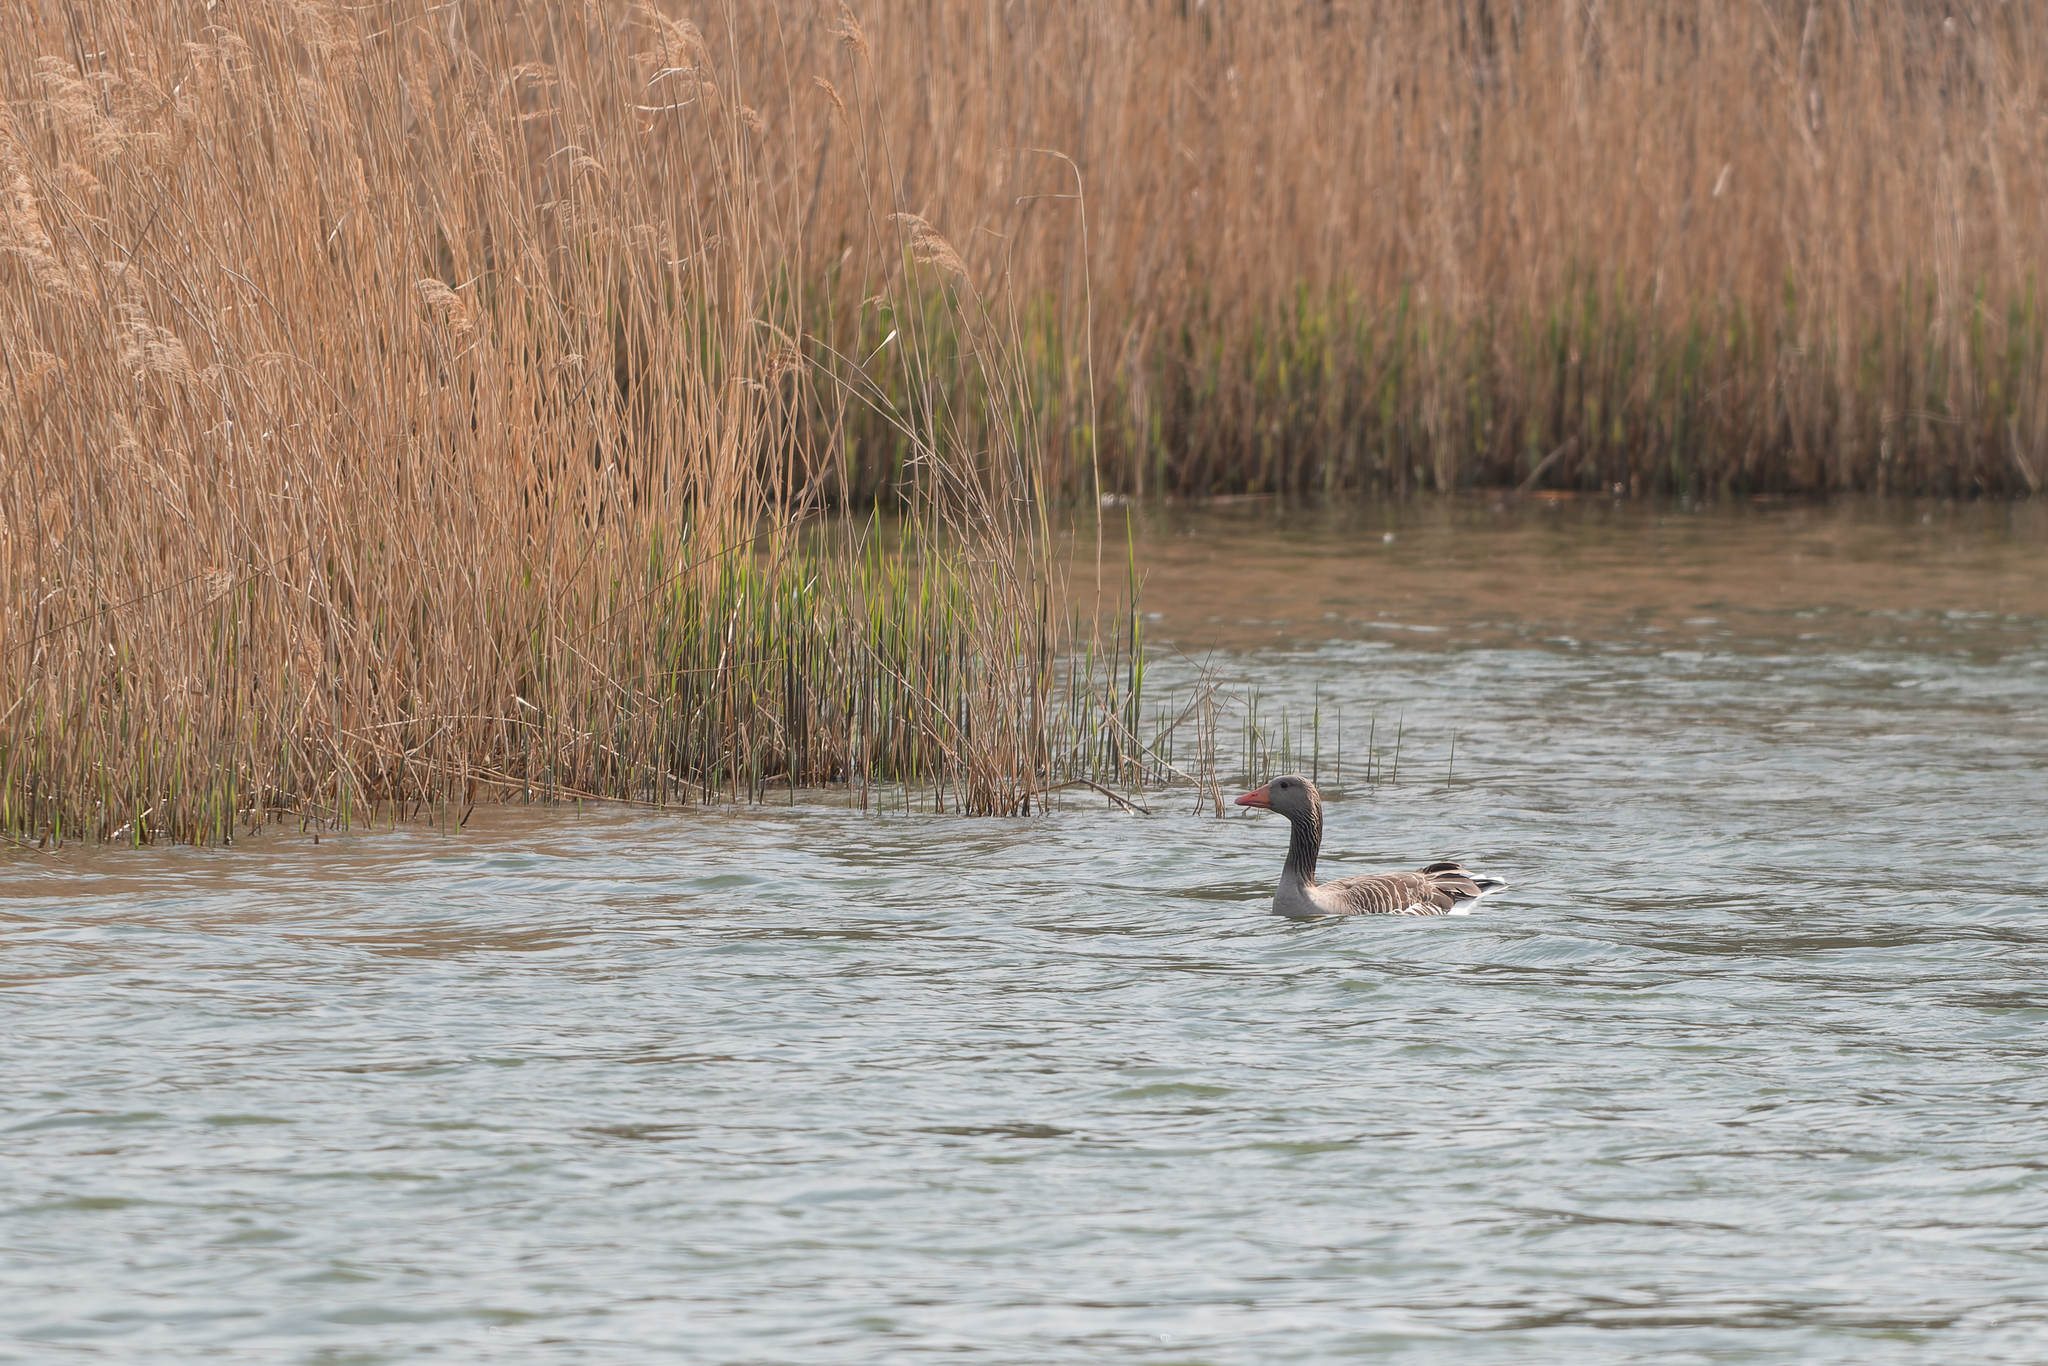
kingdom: Animalia
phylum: Chordata
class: Aves
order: Anseriformes
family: Anatidae
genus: Anser
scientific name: Anser anser
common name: Greylag goose
